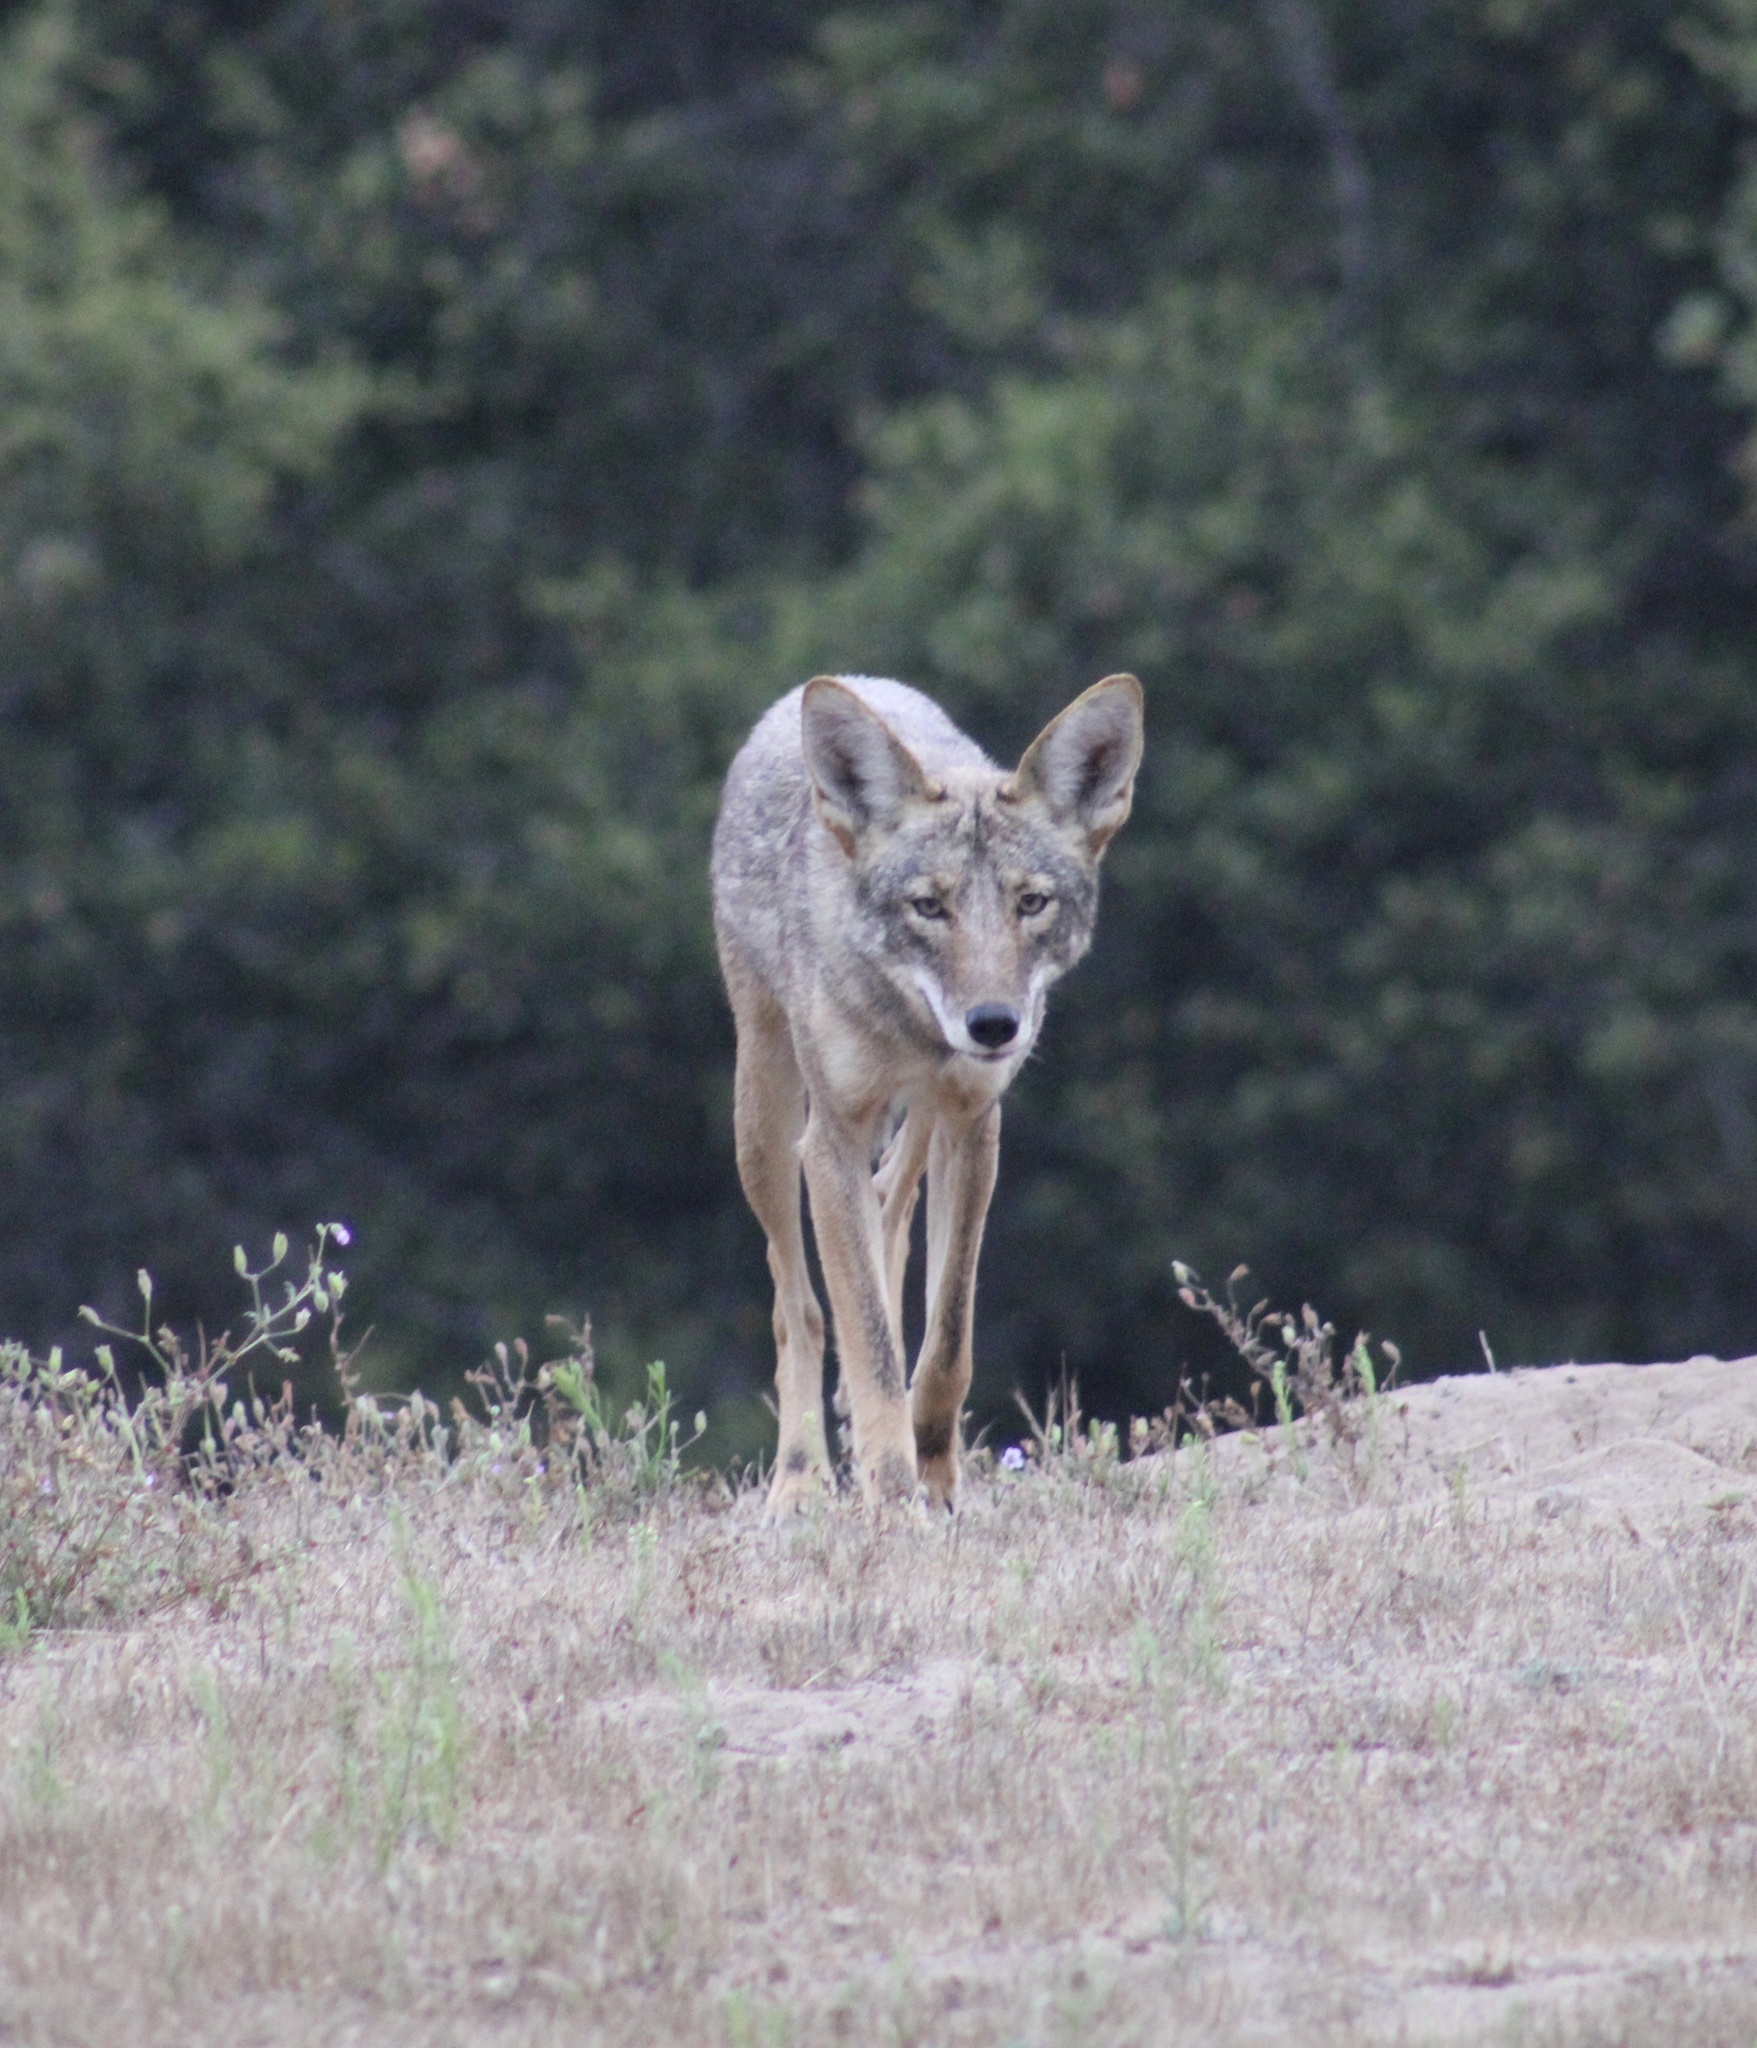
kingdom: Animalia
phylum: Chordata
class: Mammalia
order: Carnivora
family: Canidae
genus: Canis
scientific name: Canis latrans
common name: Coyote
